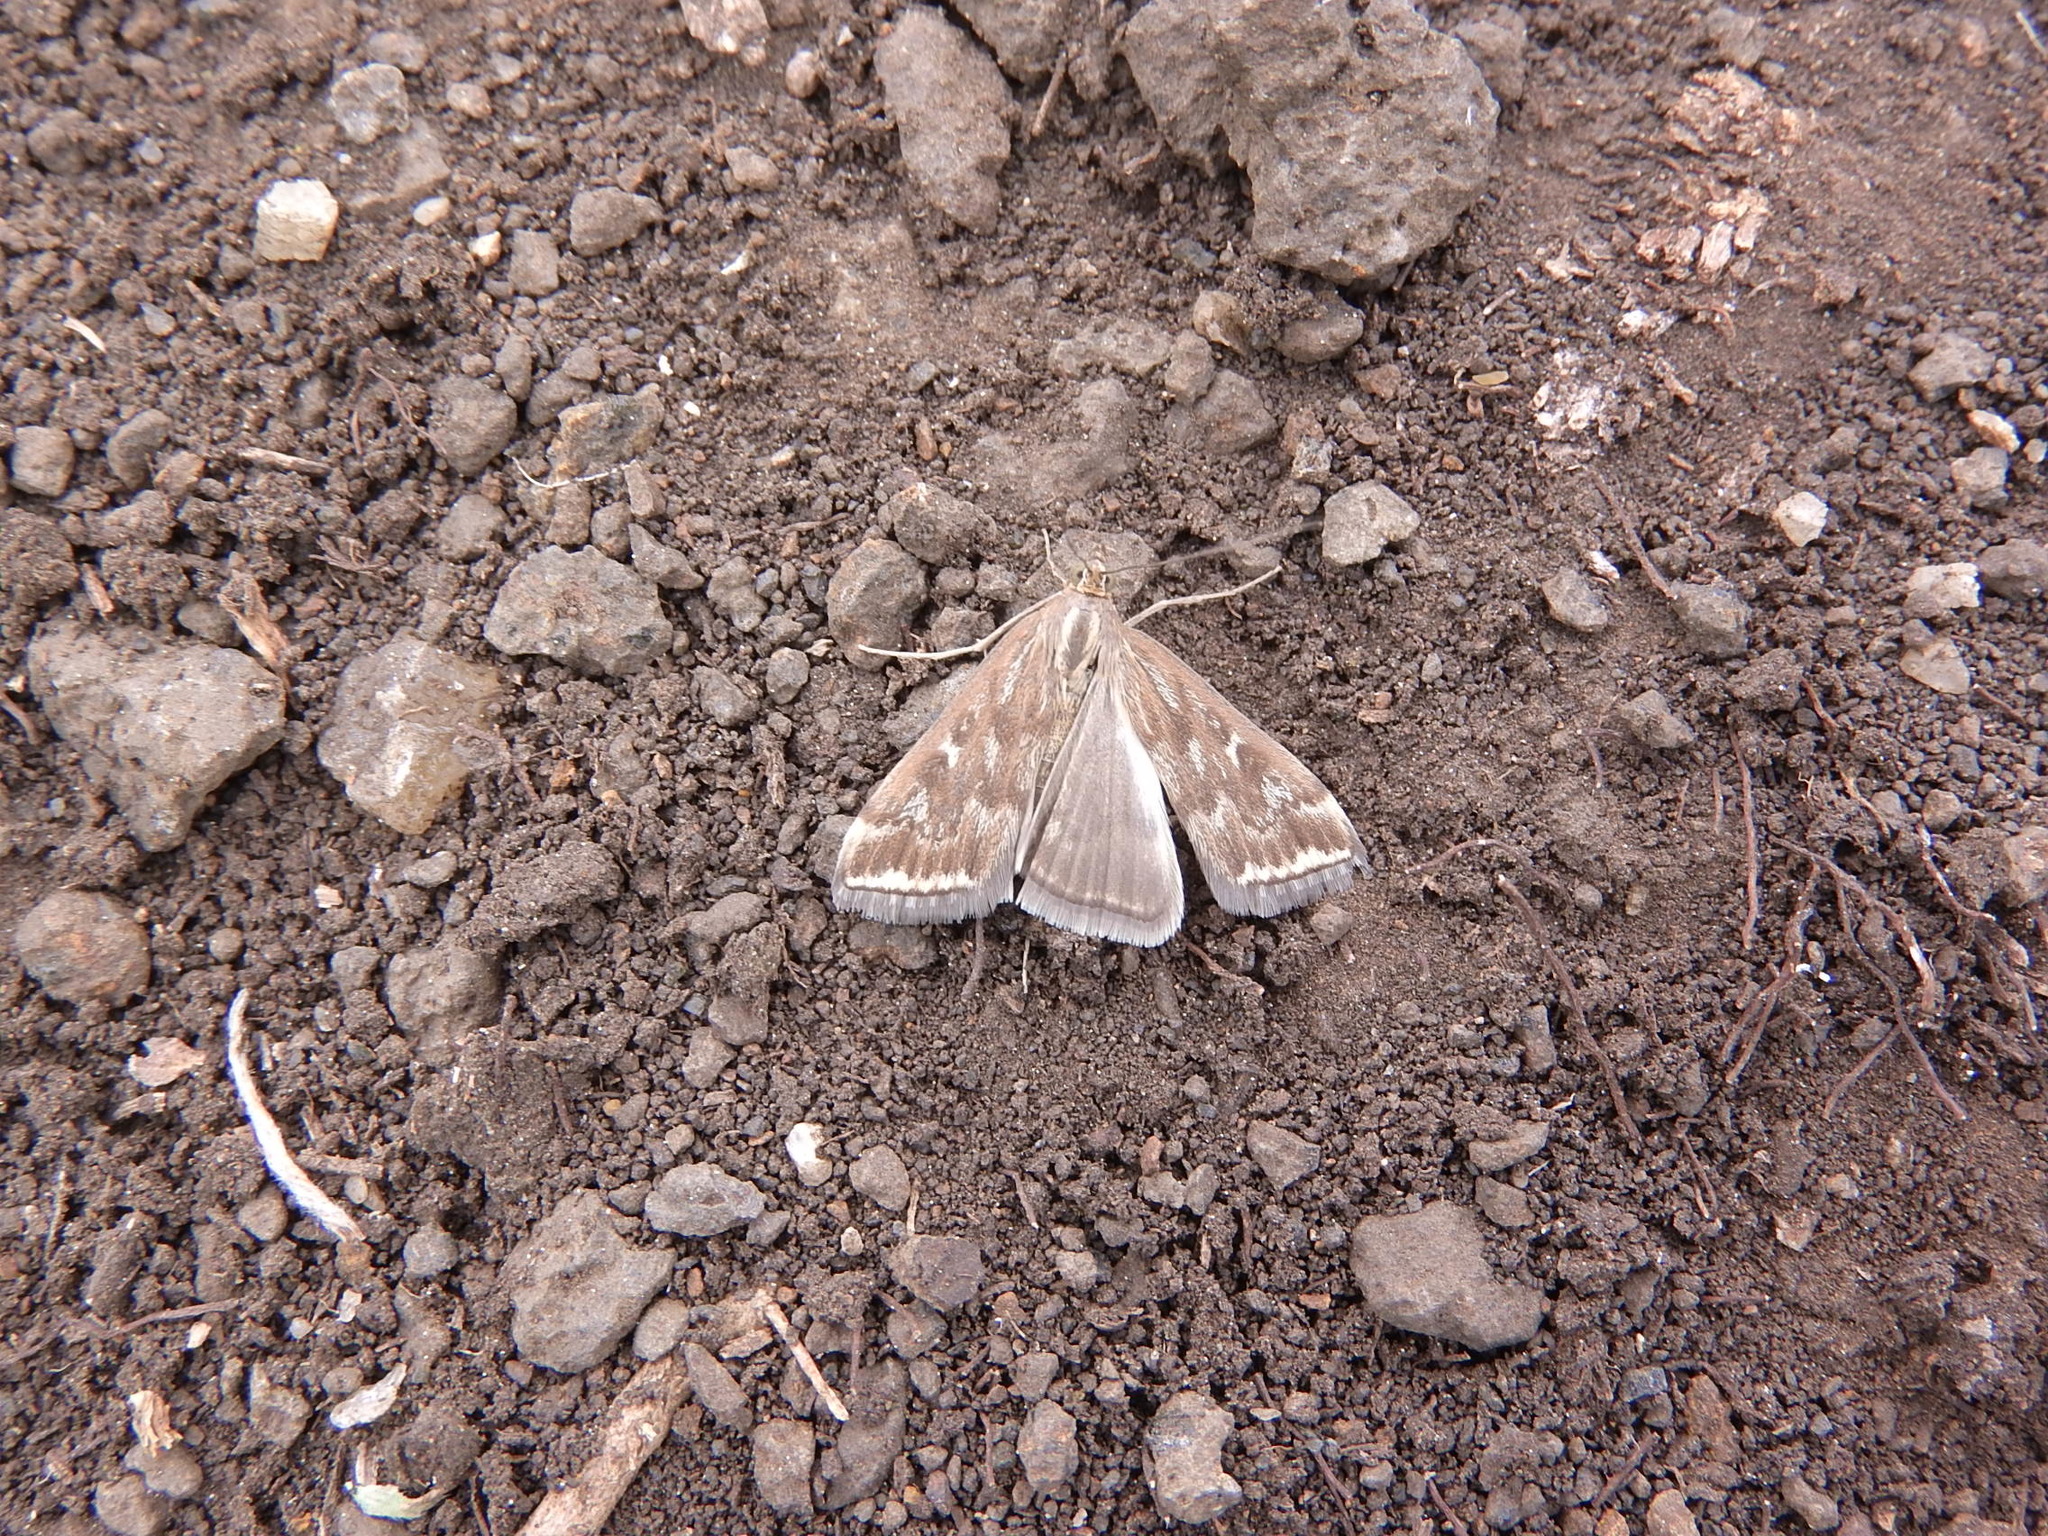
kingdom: Animalia
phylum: Arthropoda
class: Insecta
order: Lepidoptera
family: Crambidae
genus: Loxostege
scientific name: Loxostege sticticalis
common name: Crambid moth
